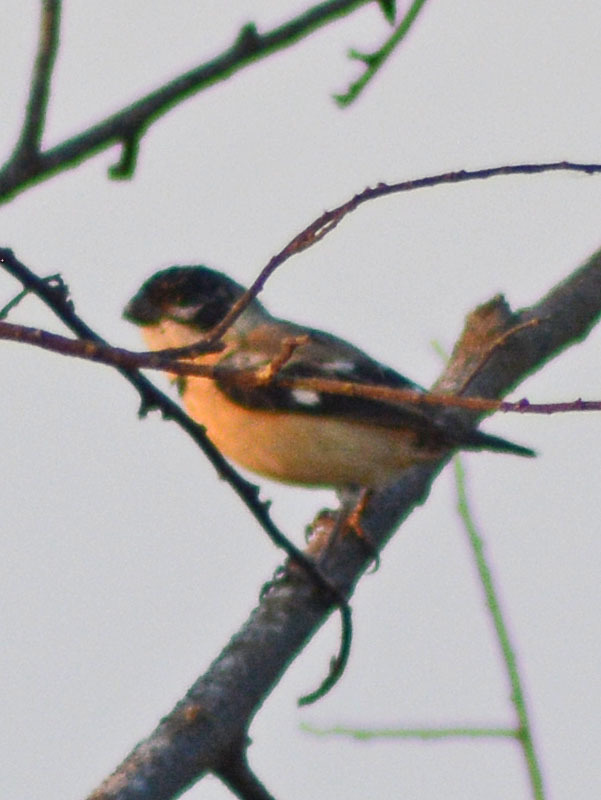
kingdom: Animalia
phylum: Chordata
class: Aves
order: Passeriformes
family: Thraupidae
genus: Sporophila
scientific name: Sporophila morelleti
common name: Morelet's seedeater
